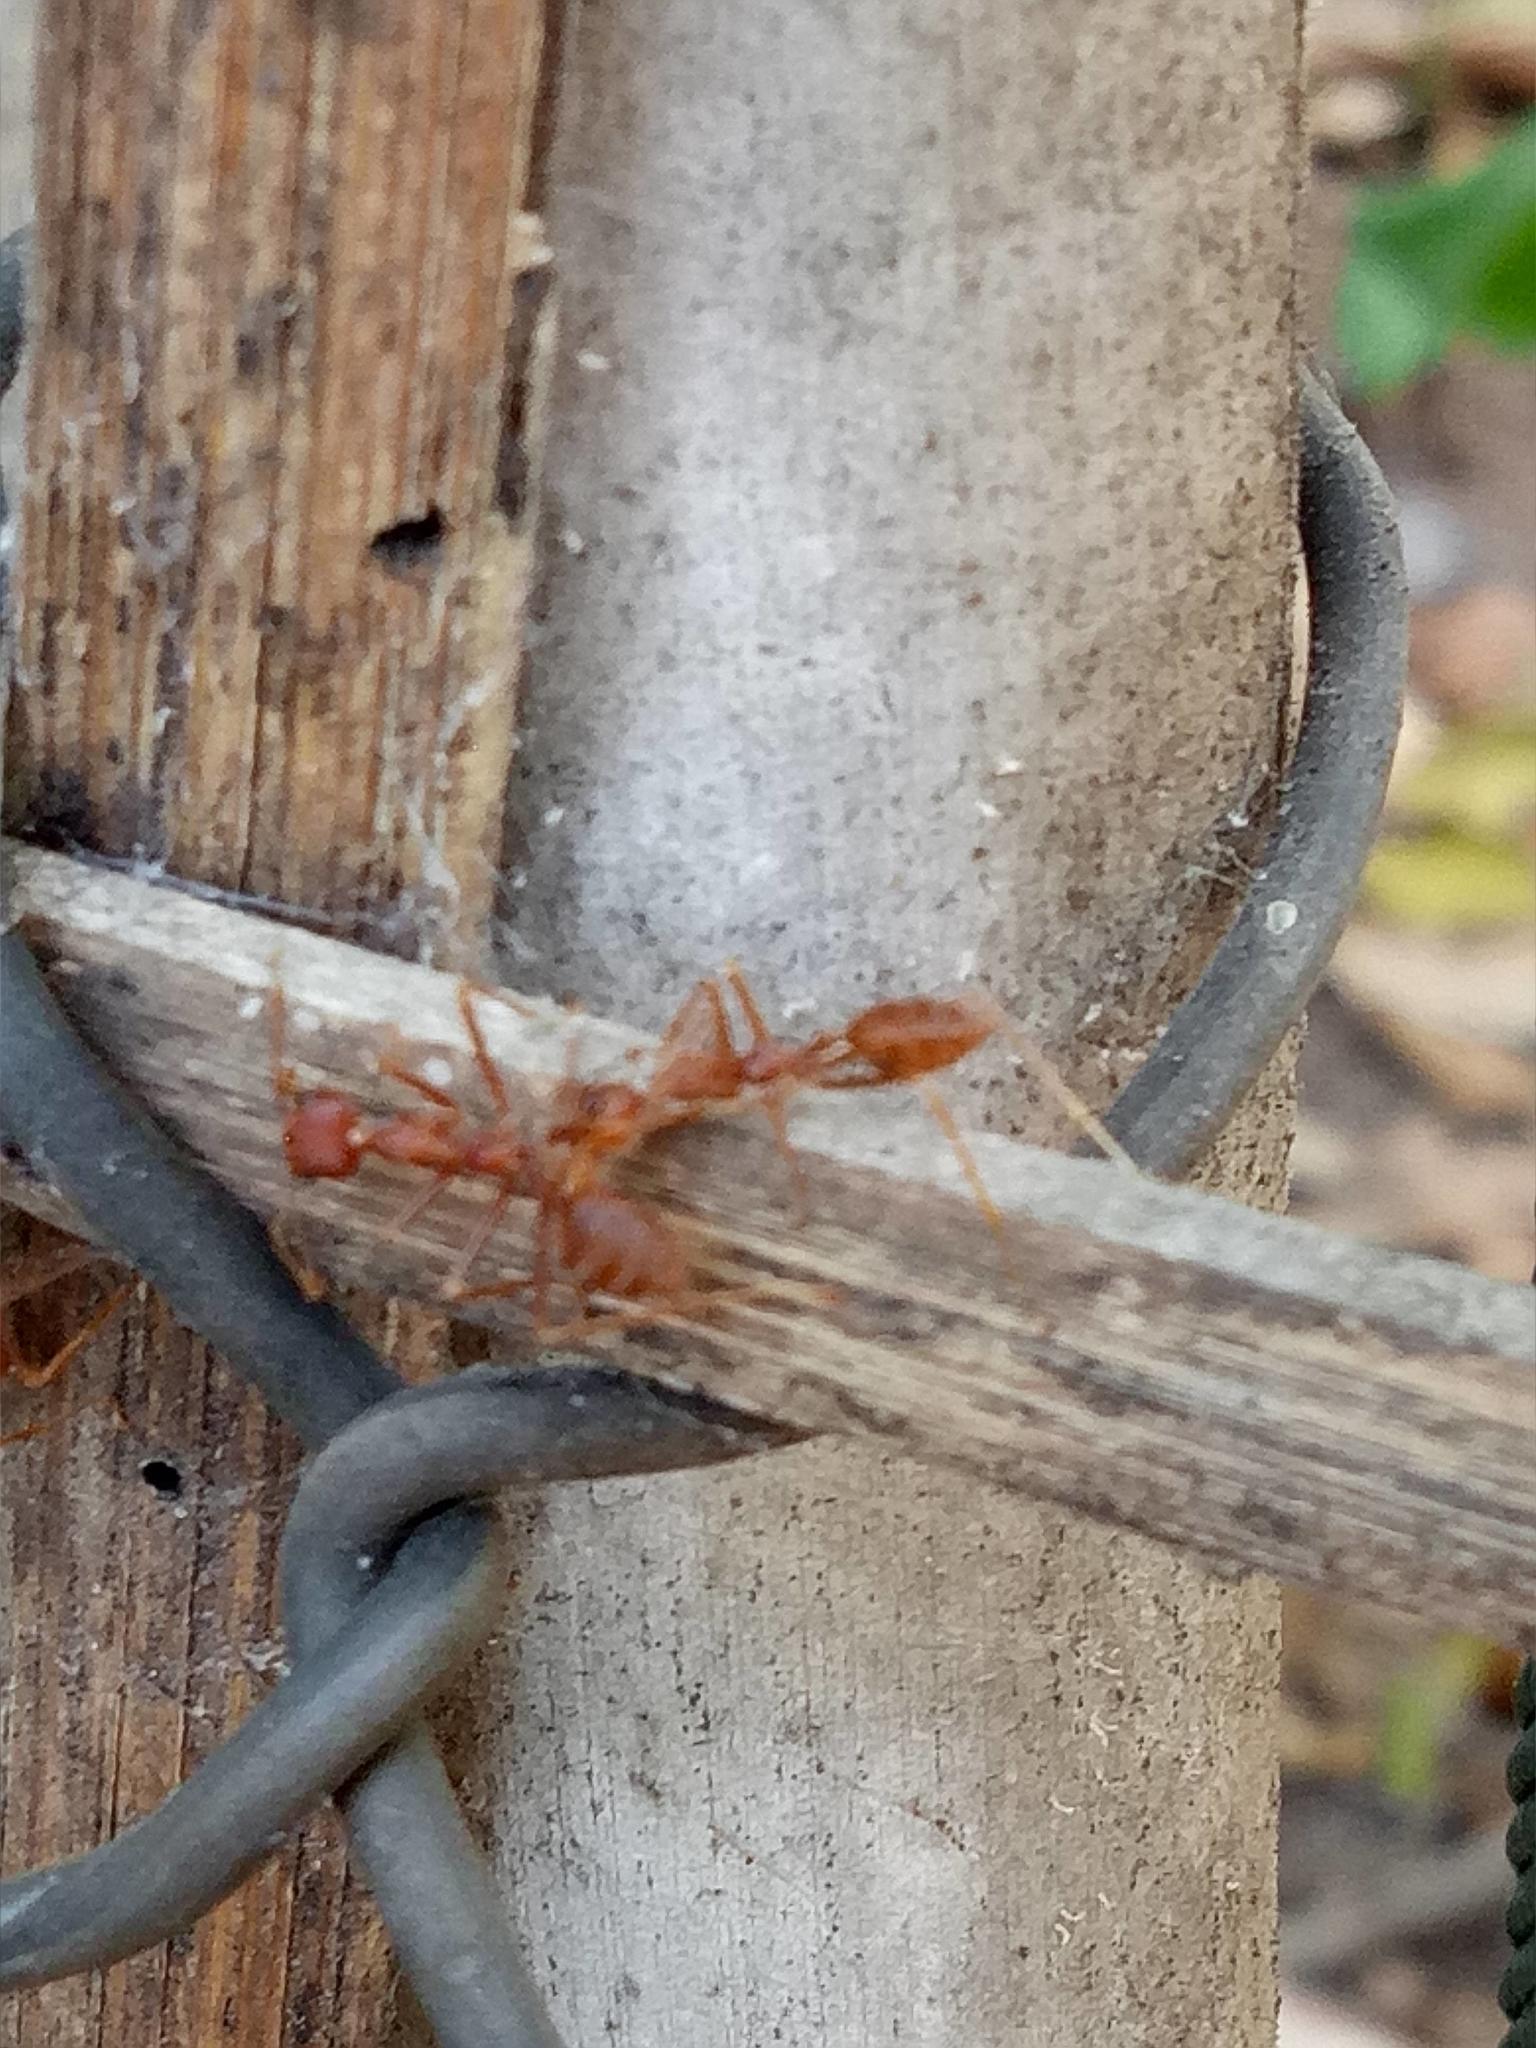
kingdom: Animalia
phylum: Arthropoda
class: Insecta
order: Hymenoptera
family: Formicidae
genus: Oecophylla
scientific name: Oecophylla smaragdina
